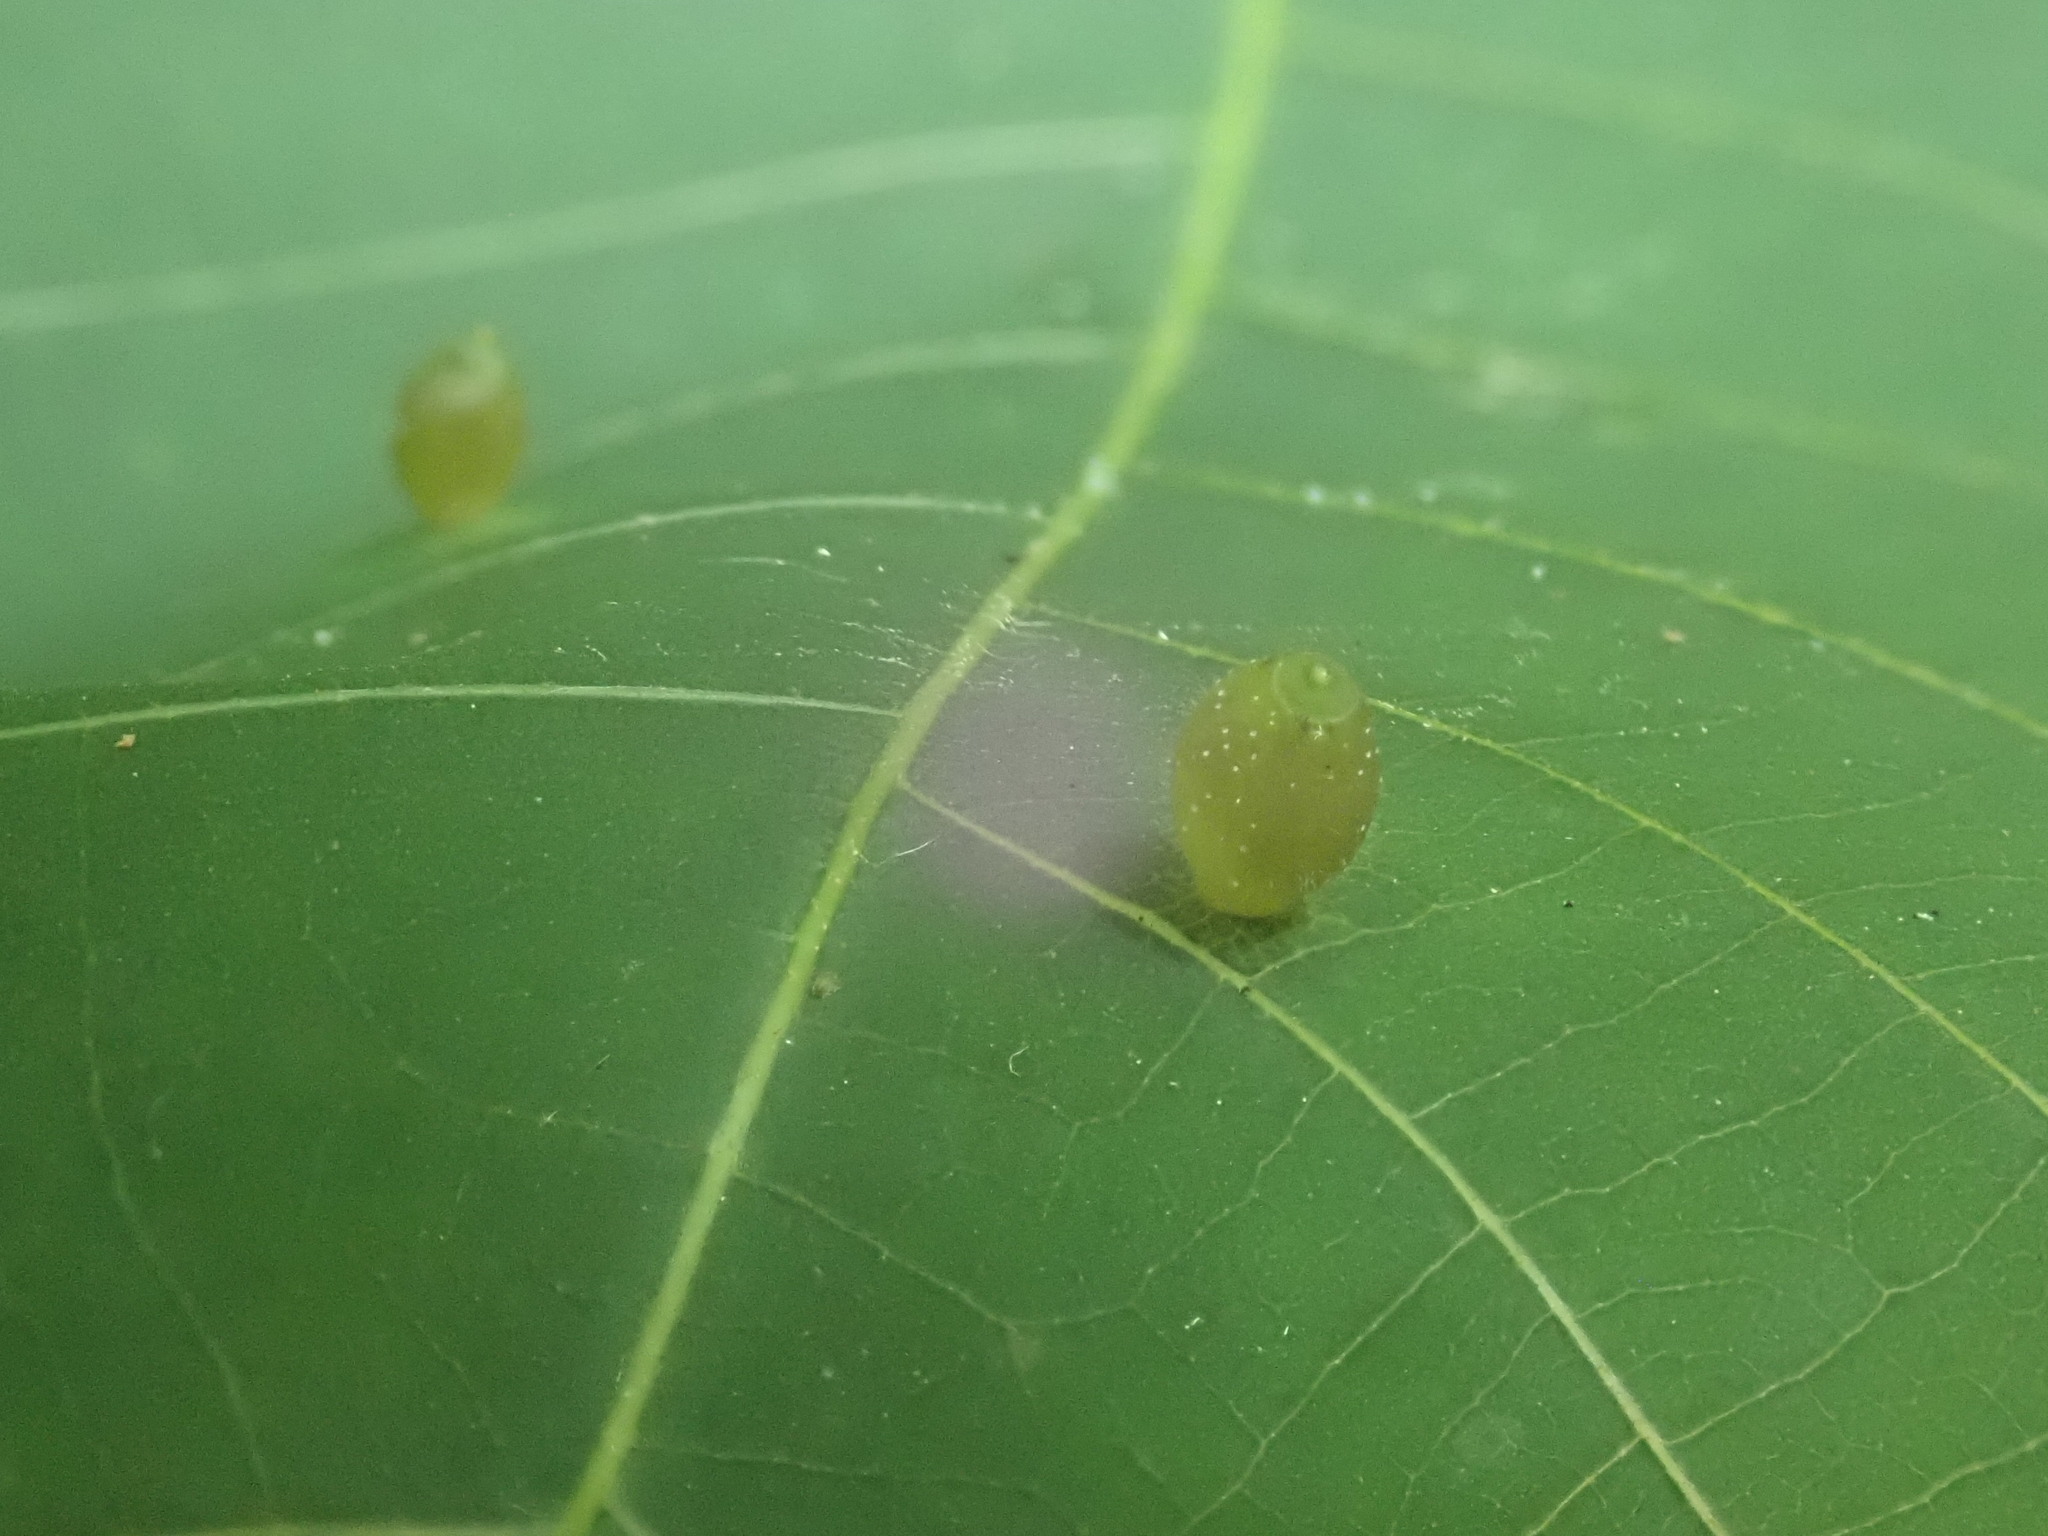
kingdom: Animalia
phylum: Arthropoda
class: Insecta
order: Diptera
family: Cecidomyiidae
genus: Caryomyia
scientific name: Caryomyia viscidolium
